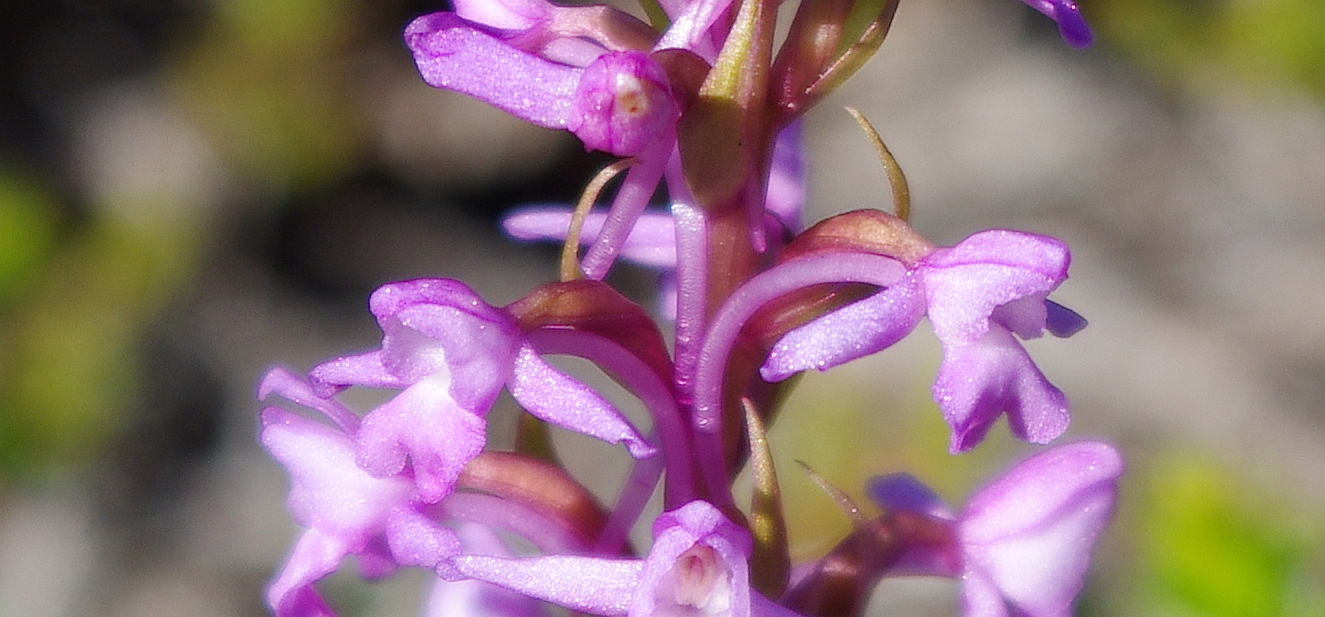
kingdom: Plantae
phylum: Tracheophyta
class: Liliopsida
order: Asparagales
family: Orchidaceae
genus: Gymnadenia
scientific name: Gymnadenia conopsea
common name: Fragrant orchid
